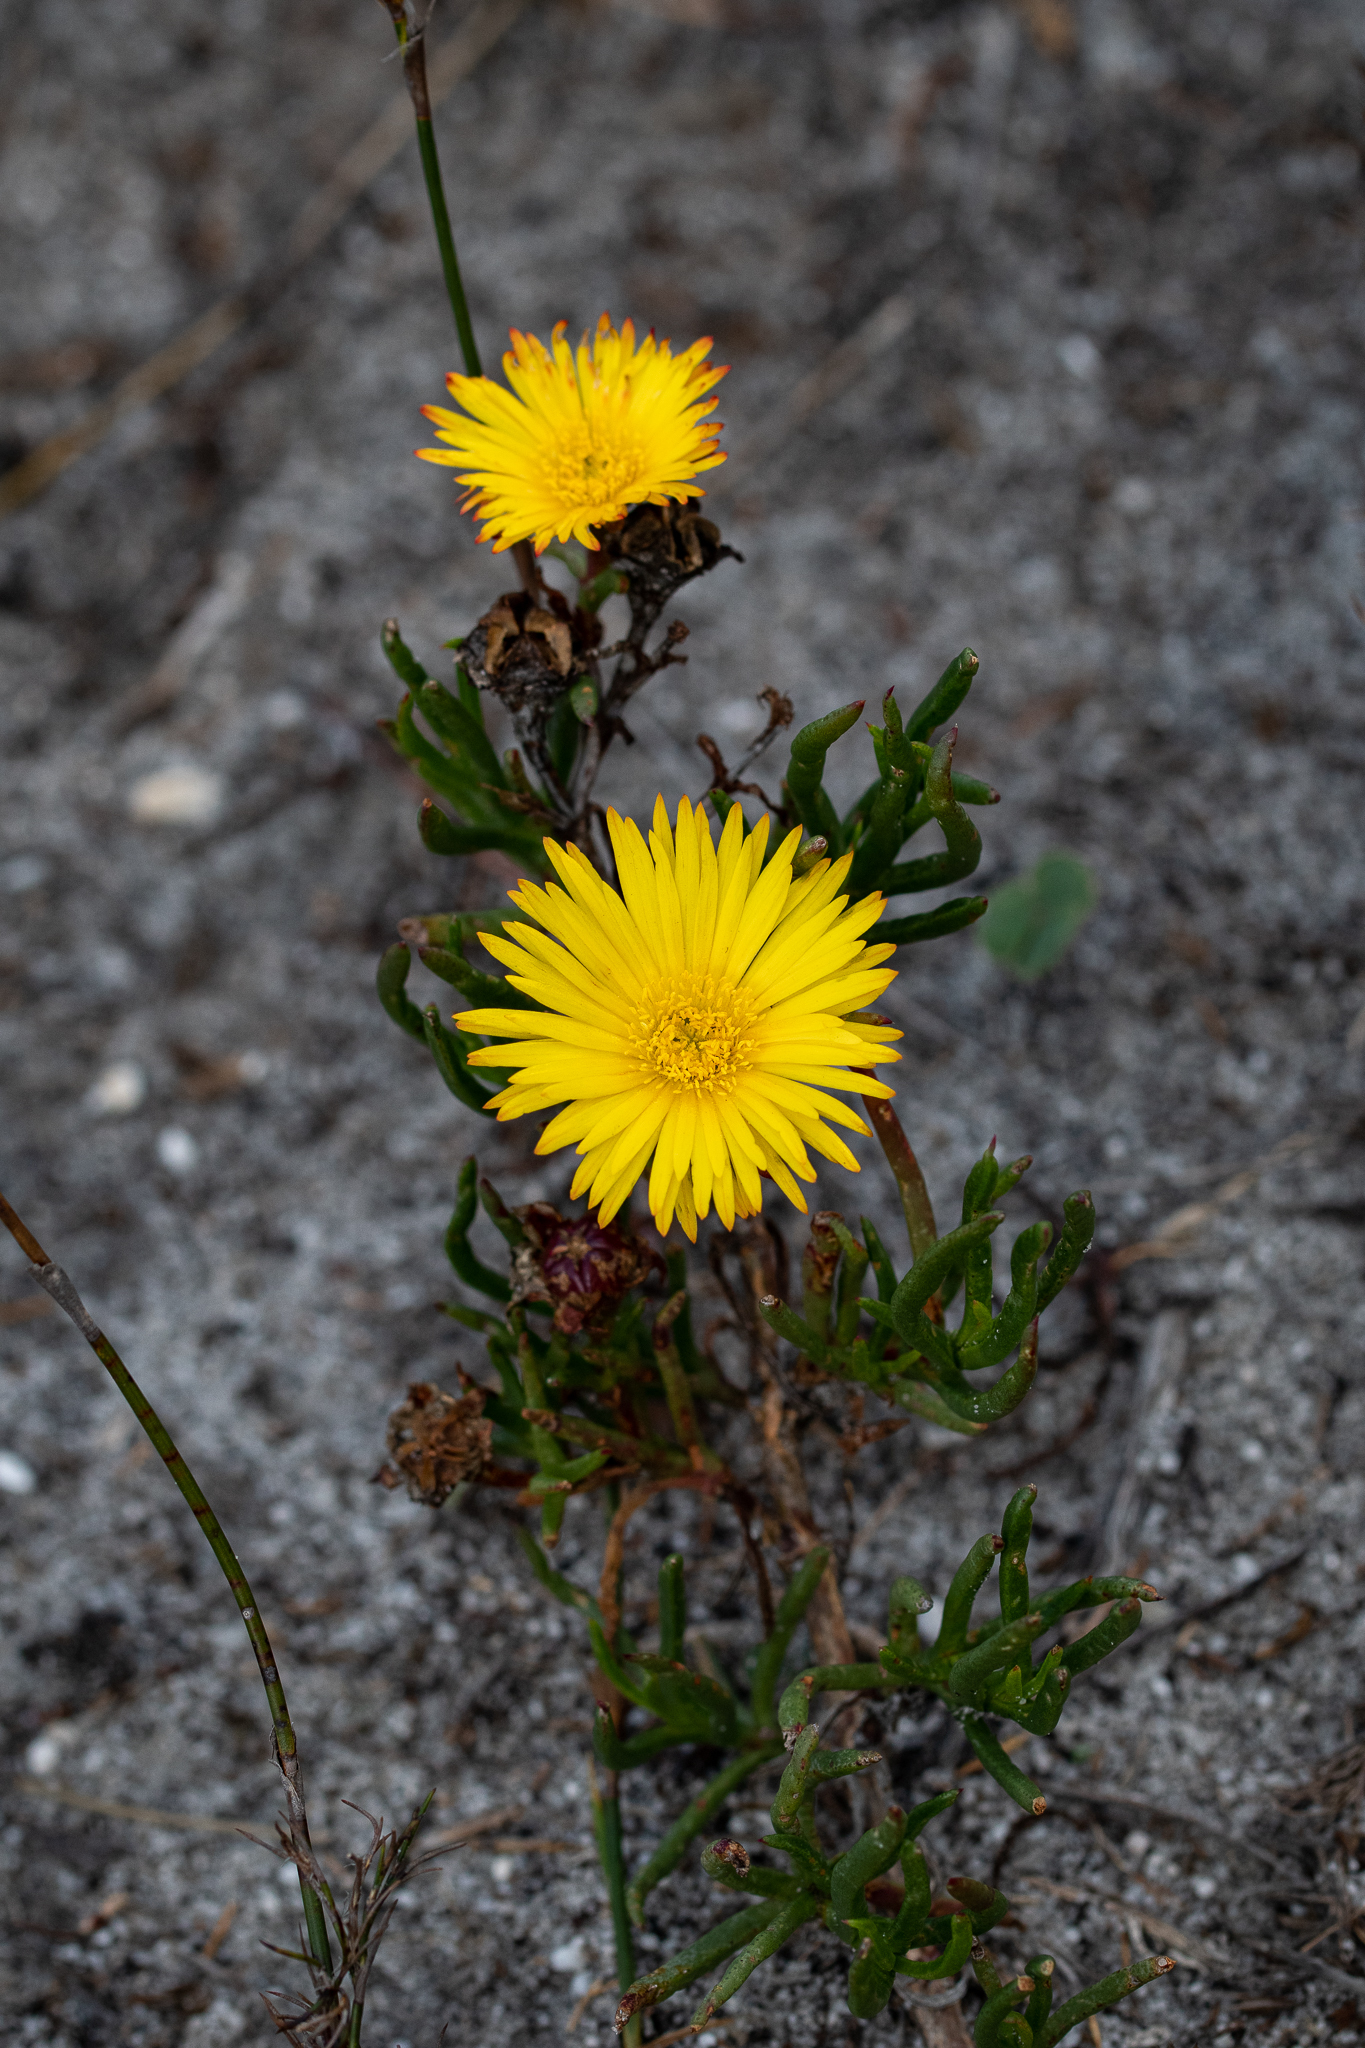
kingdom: Plantae
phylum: Tracheophyta
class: Magnoliopsida
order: Caryophyllales
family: Aizoaceae
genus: Lampranthus
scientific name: Lampranthus bicolor
